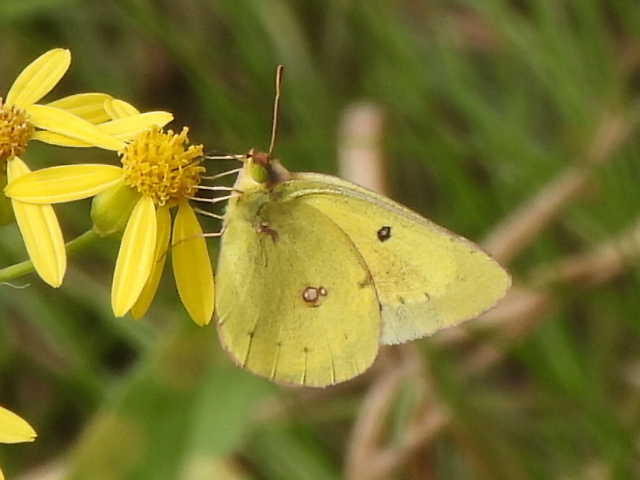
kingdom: Animalia
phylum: Arthropoda
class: Insecta
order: Lepidoptera
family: Pieridae
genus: Colias
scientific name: Colias eurytheme
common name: Alfalfa butterfly
